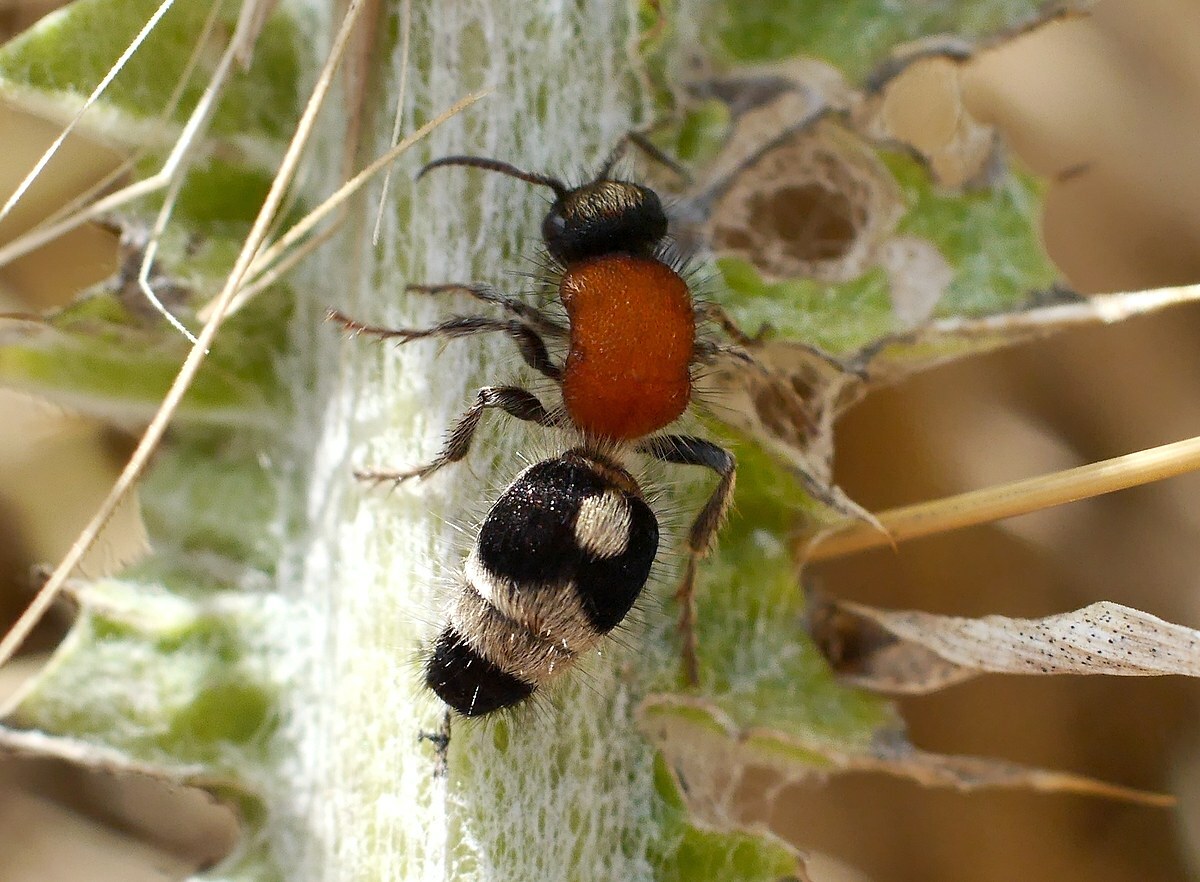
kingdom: Animalia
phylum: Arthropoda
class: Insecta
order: Hymenoptera
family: Mutillidae
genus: Nemka
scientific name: Nemka viduata
